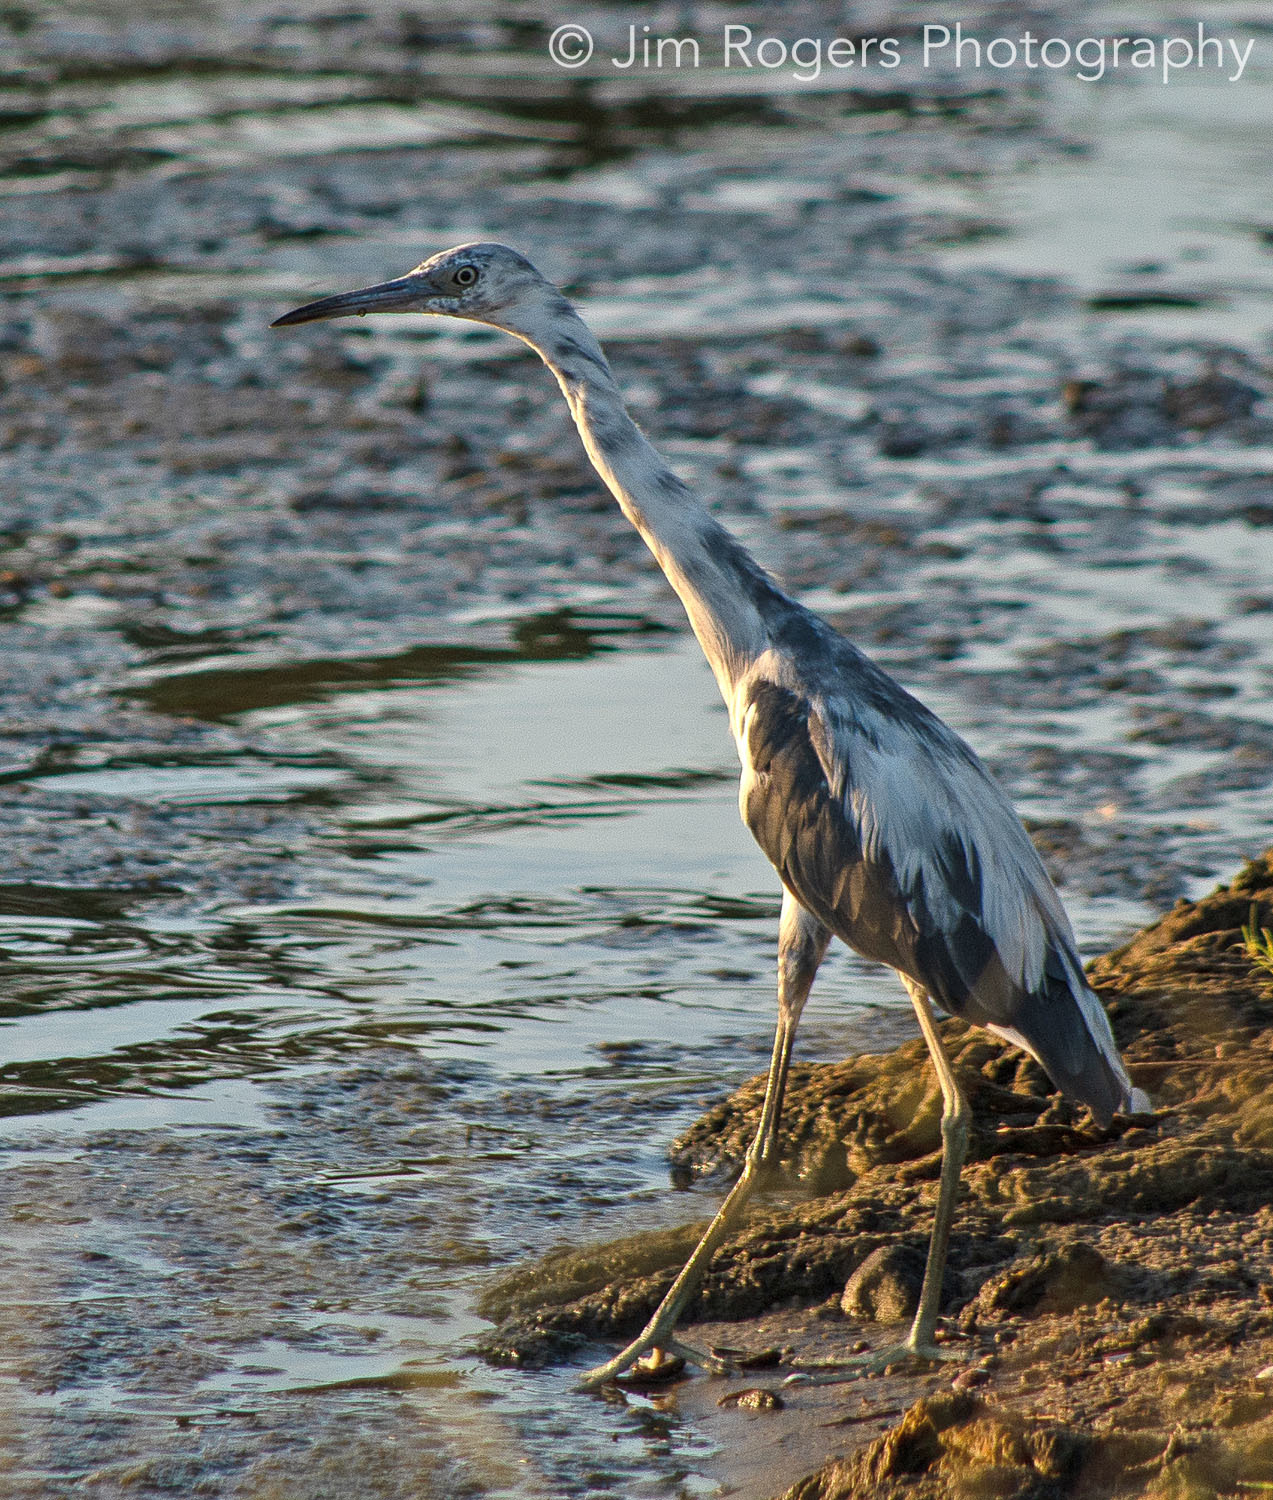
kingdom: Animalia
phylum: Chordata
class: Aves
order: Pelecaniformes
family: Ardeidae
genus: Egretta
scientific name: Egretta caerulea
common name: Little blue heron
